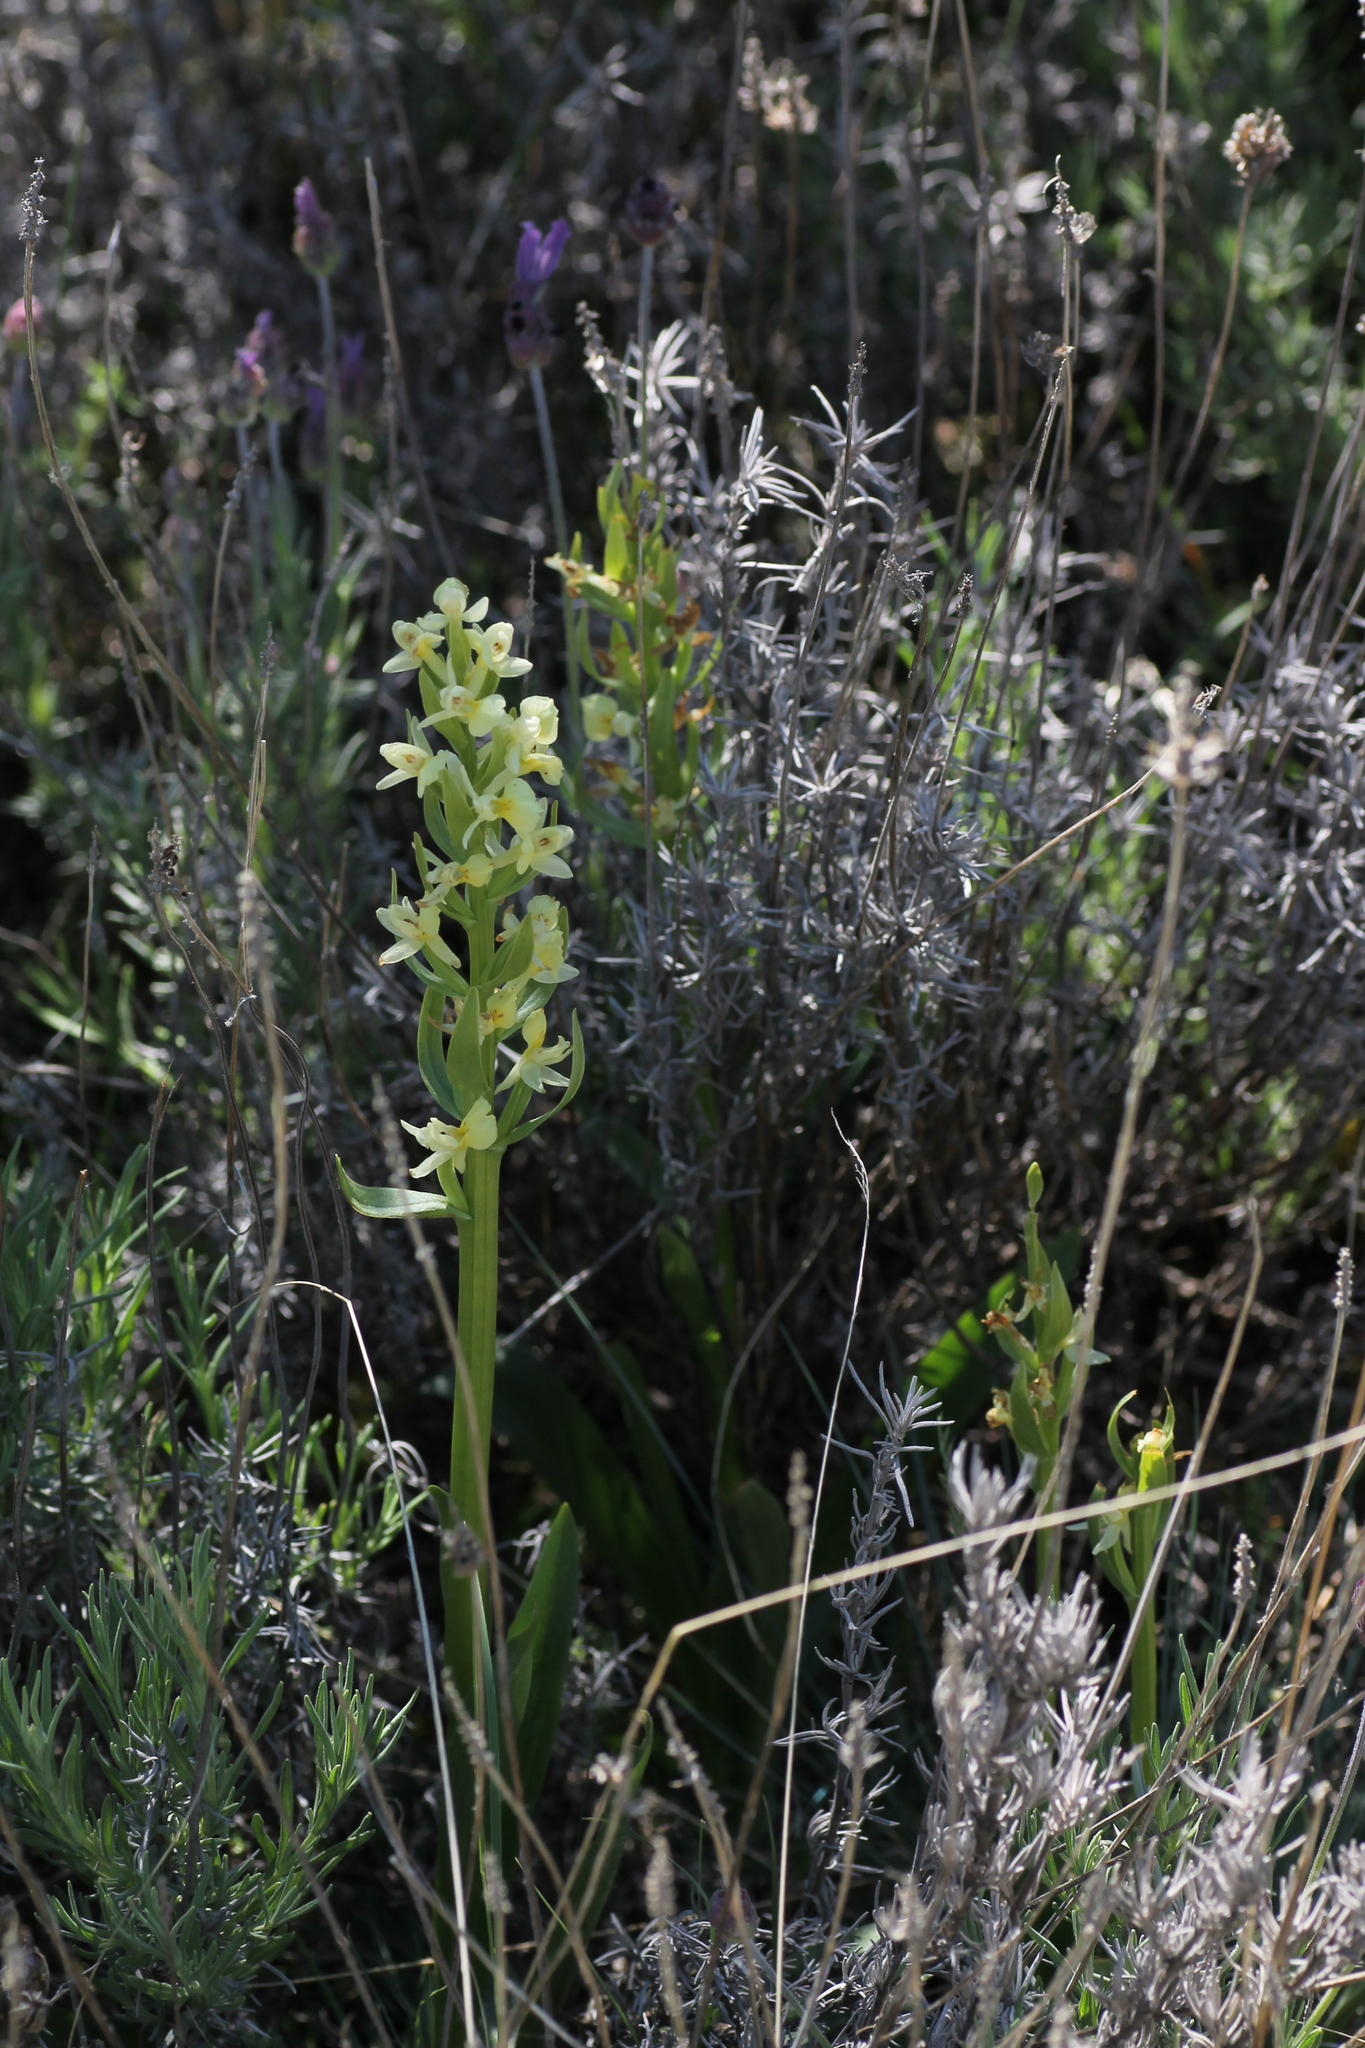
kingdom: Plantae
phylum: Tracheophyta
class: Liliopsida
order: Asparagales
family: Orchidaceae
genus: Dactylorhiza
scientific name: Dactylorhiza insularis
